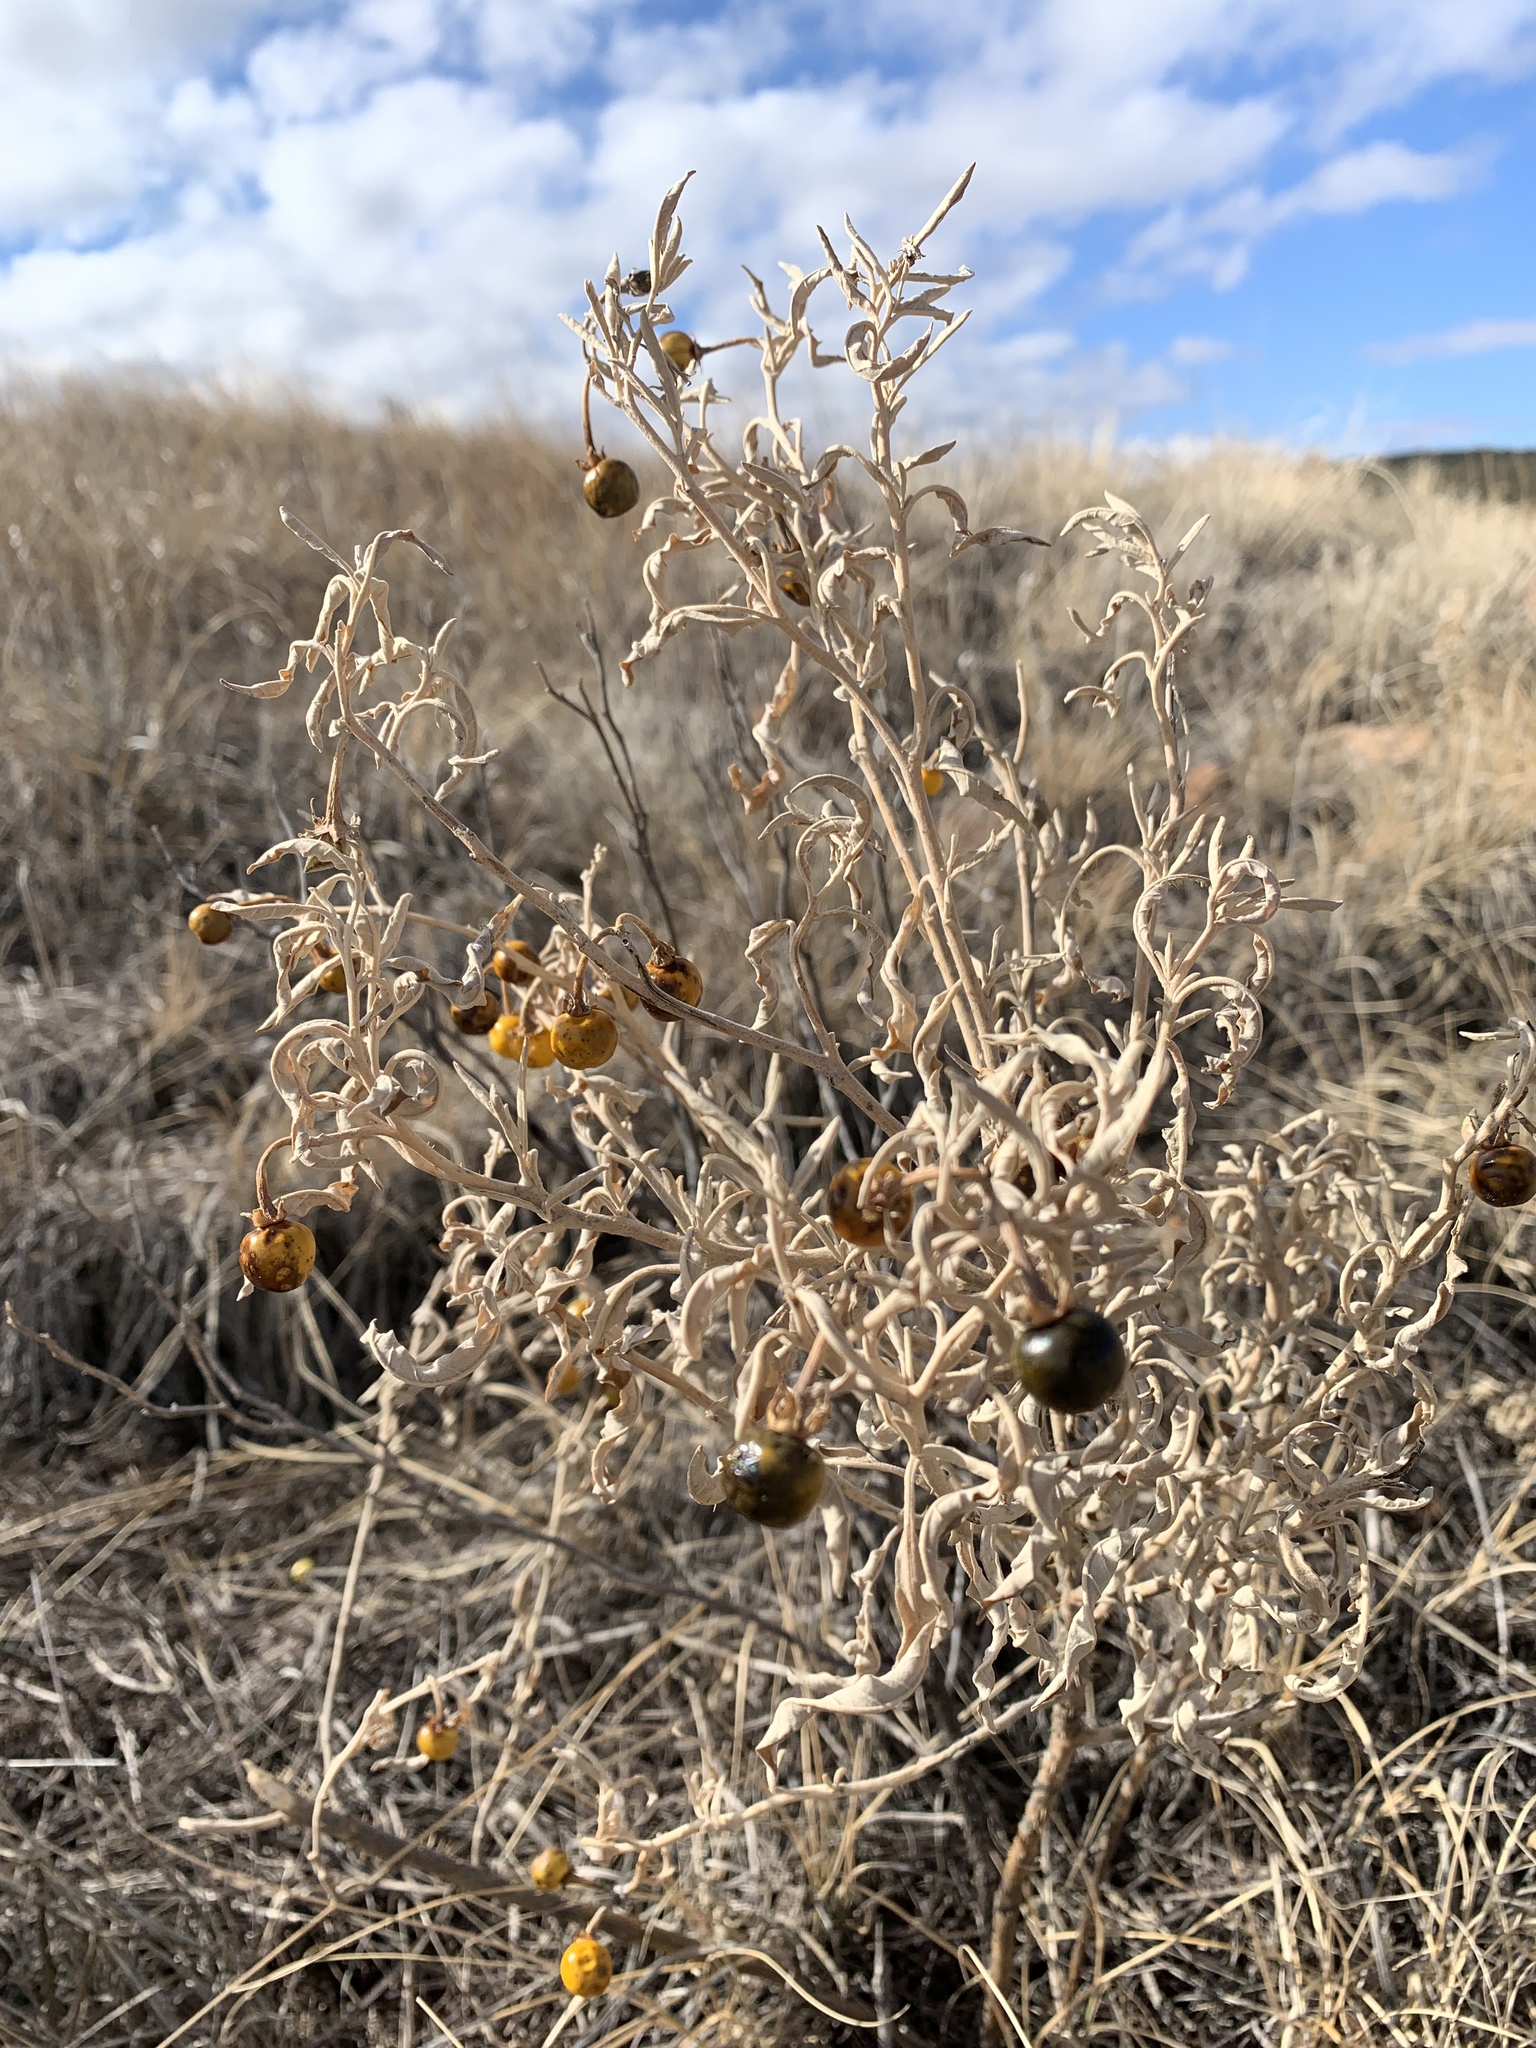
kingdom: Plantae
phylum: Tracheophyta
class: Magnoliopsida
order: Solanales
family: Solanaceae
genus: Solanum
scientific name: Solanum elaeagnifolium
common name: Silverleaf nightshade
